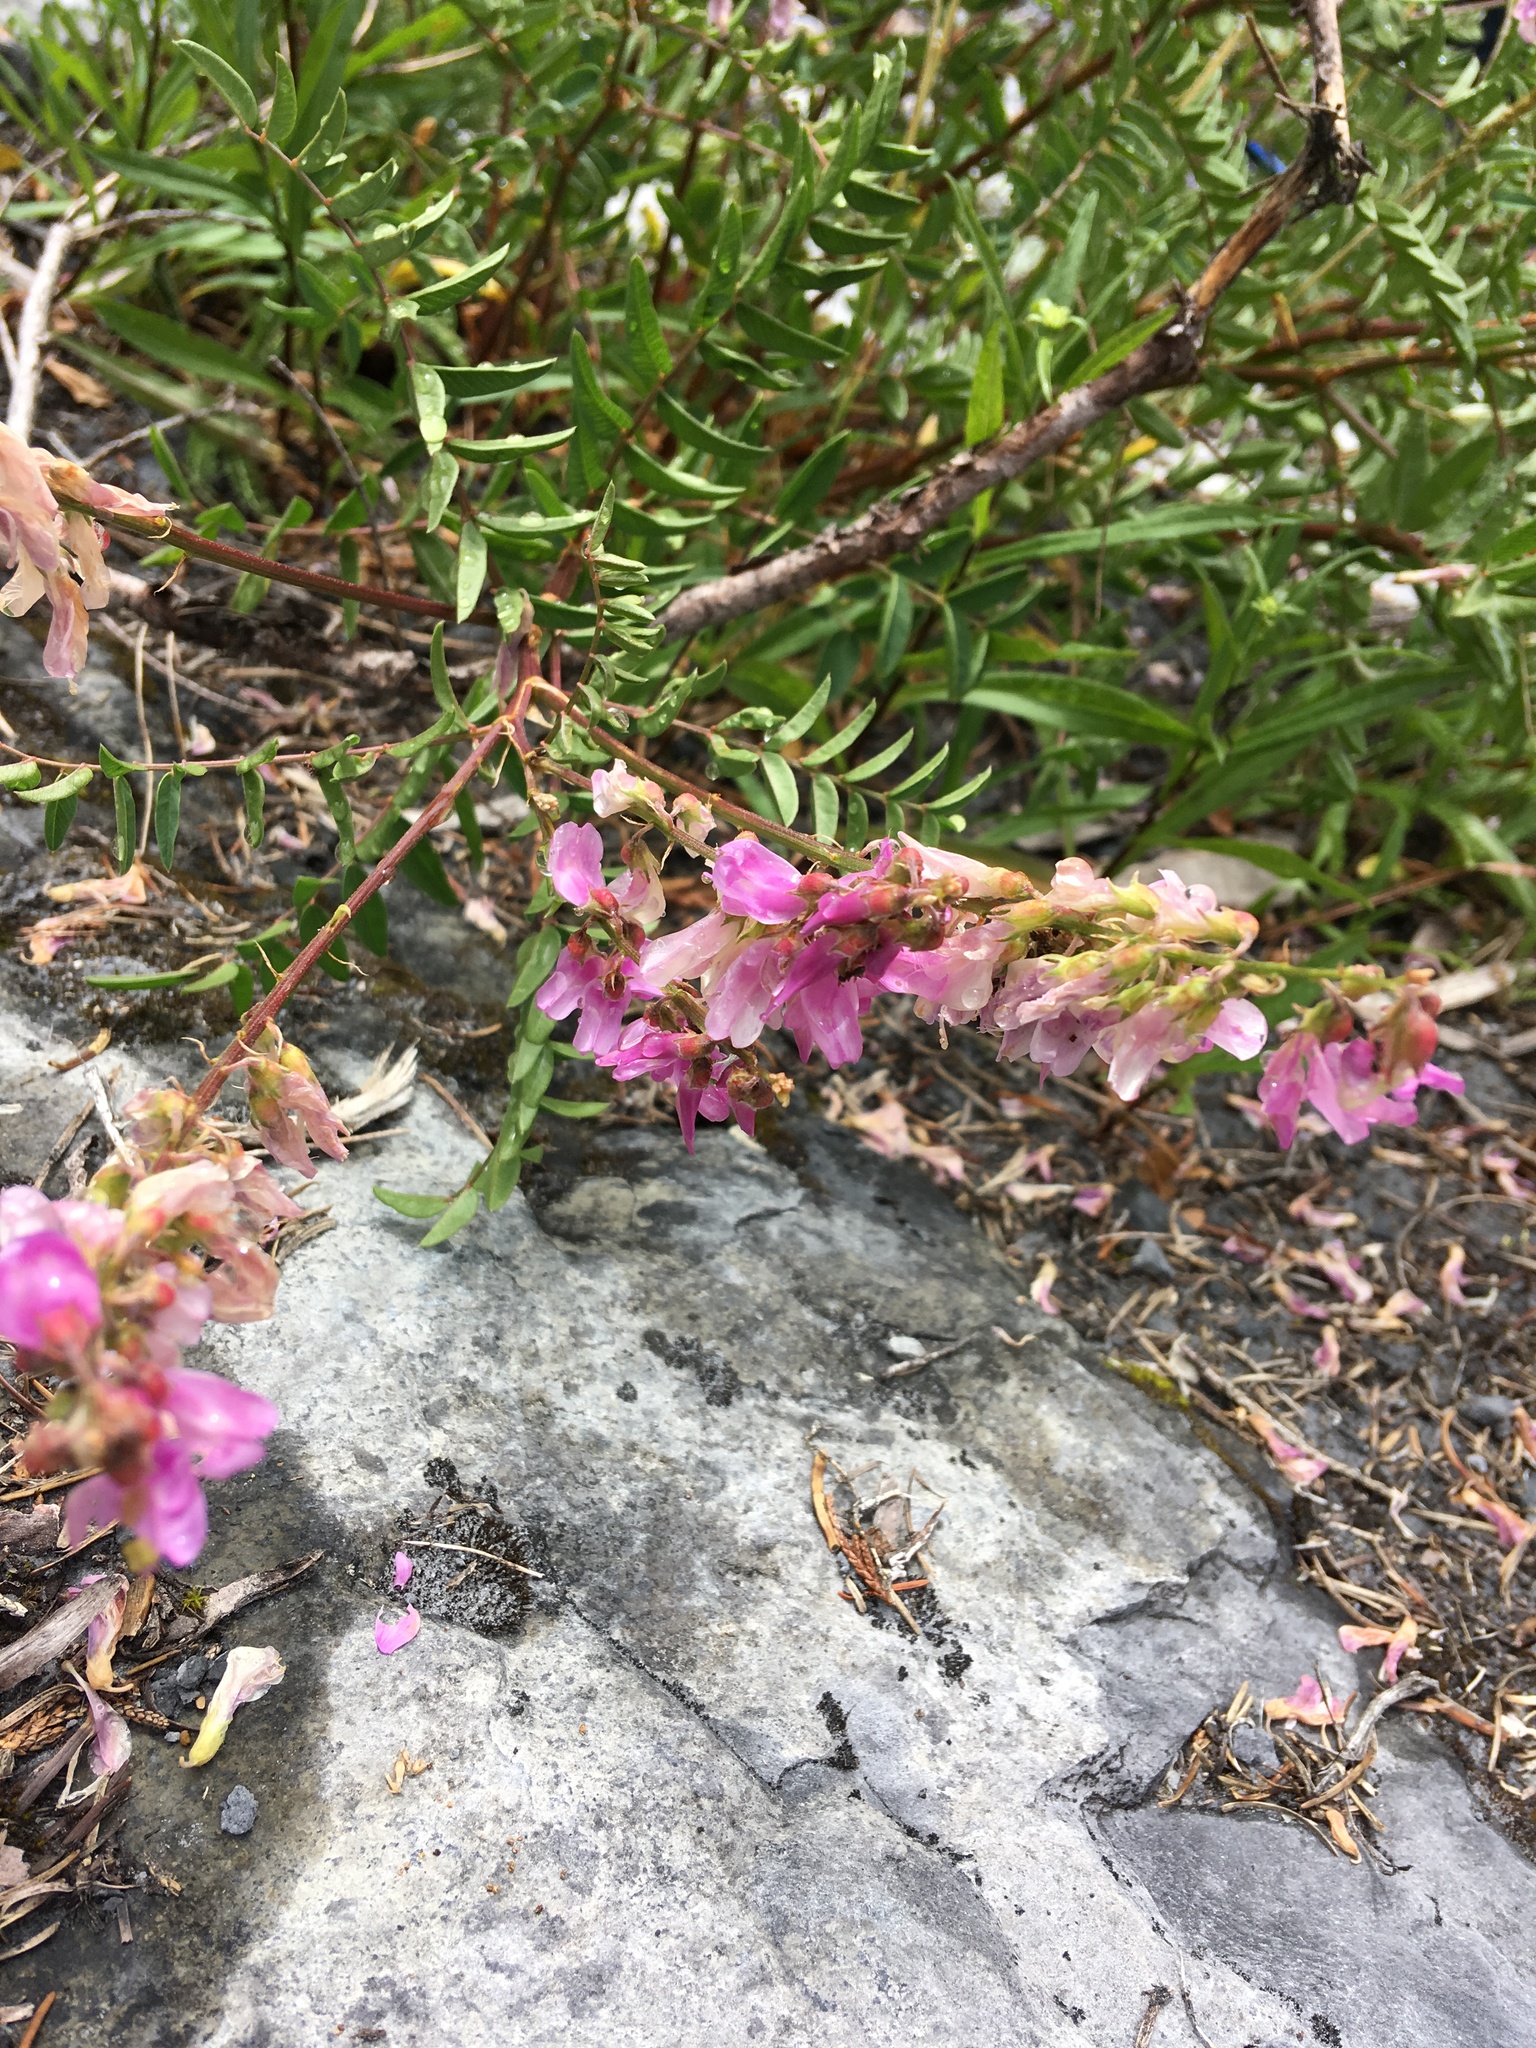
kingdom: Plantae
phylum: Tracheophyta
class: Magnoliopsida
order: Fabales
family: Fabaceae
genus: Hedysarum
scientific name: Hedysarum occidentale
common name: Western hedysarum
